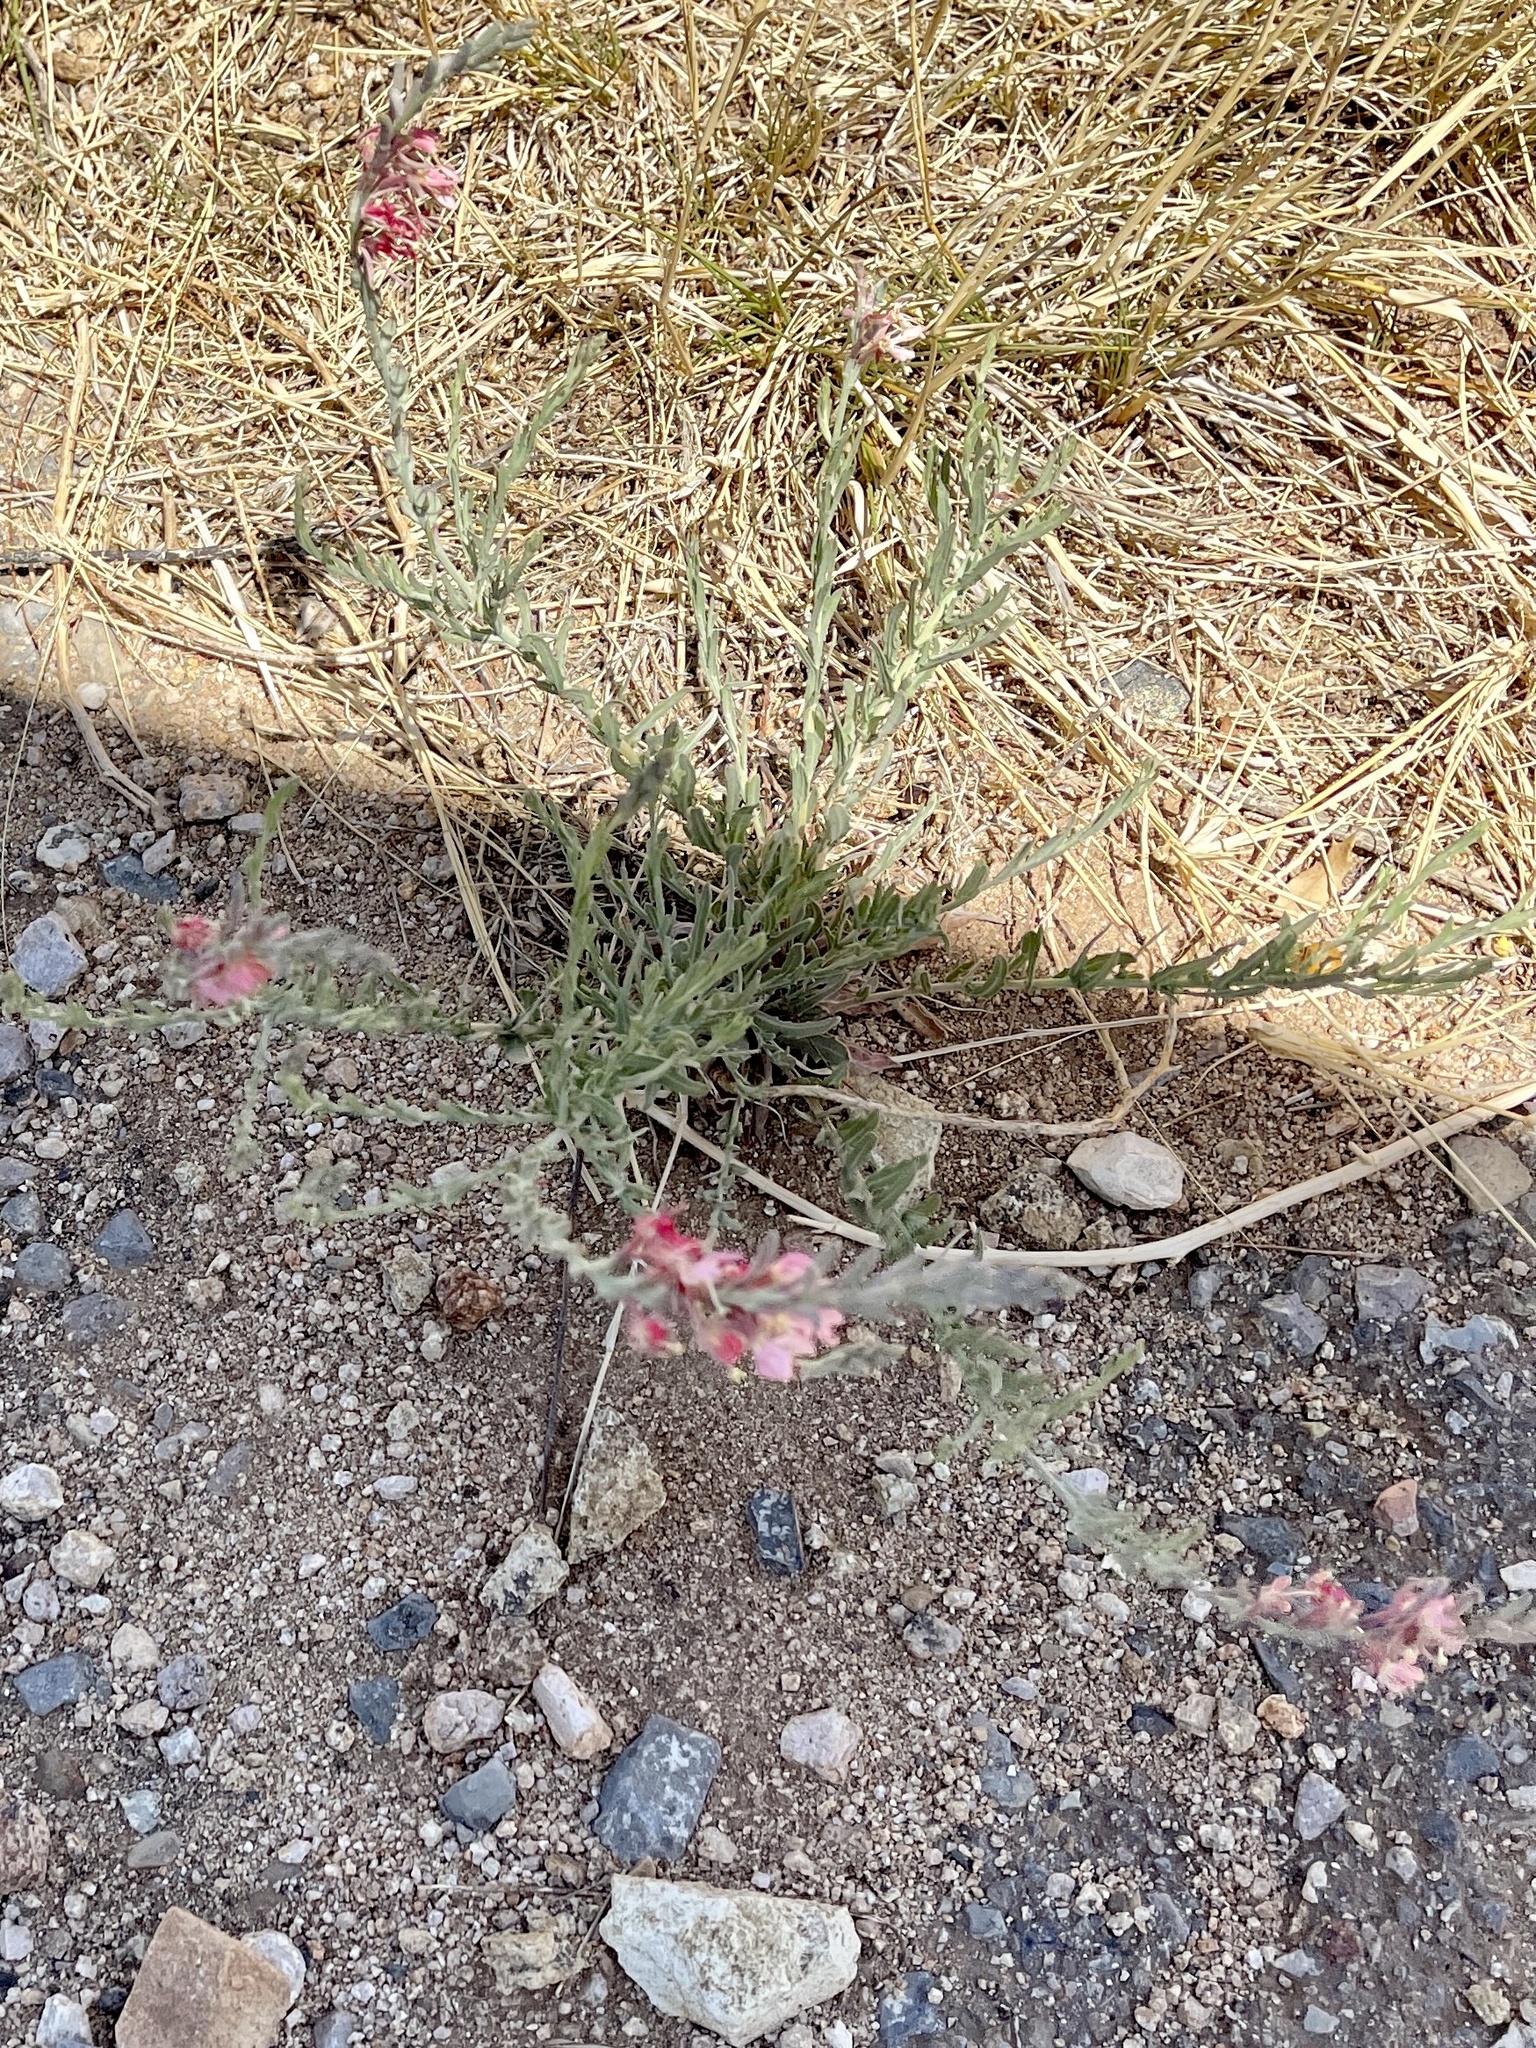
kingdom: Plantae
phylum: Tracheophyta
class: Magnoliopsida
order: Myrtales
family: Onagraceae
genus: Oenothera
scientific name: Oenothera suffrutescens
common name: Scarlet beeblossom
